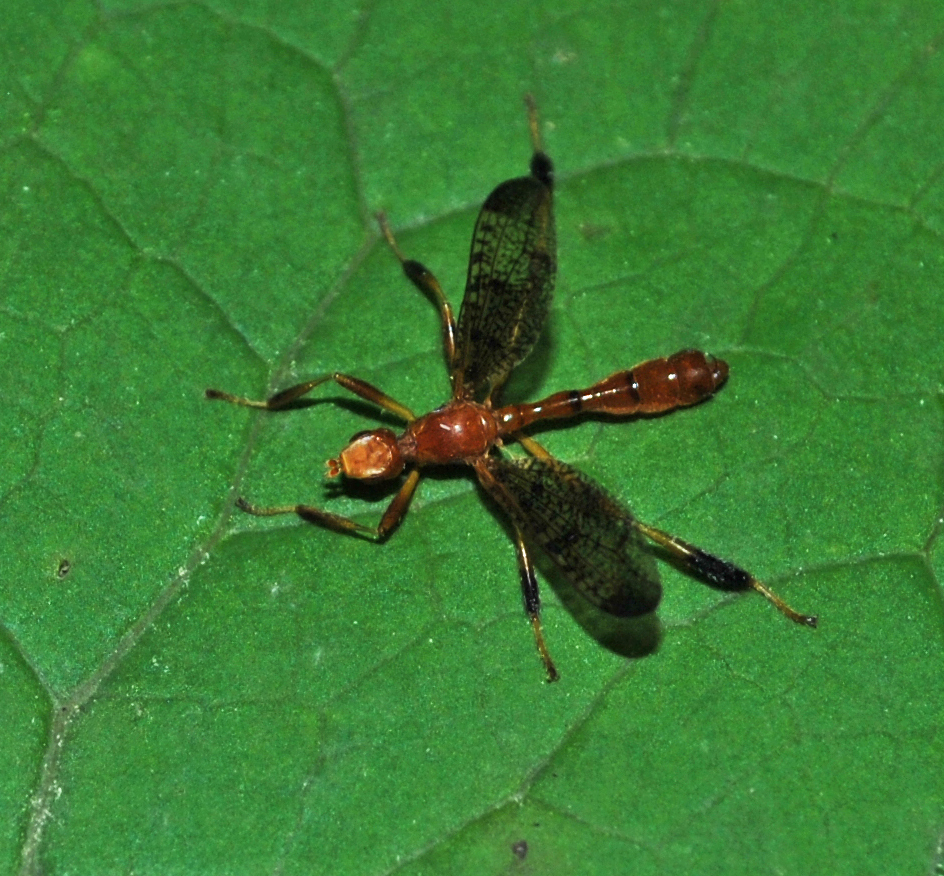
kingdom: Animalia
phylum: Arthropoda
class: Insecta
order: Diptera
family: Pyrgotidae
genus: Pyrgotella
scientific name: Pyrgotella chagnoni
